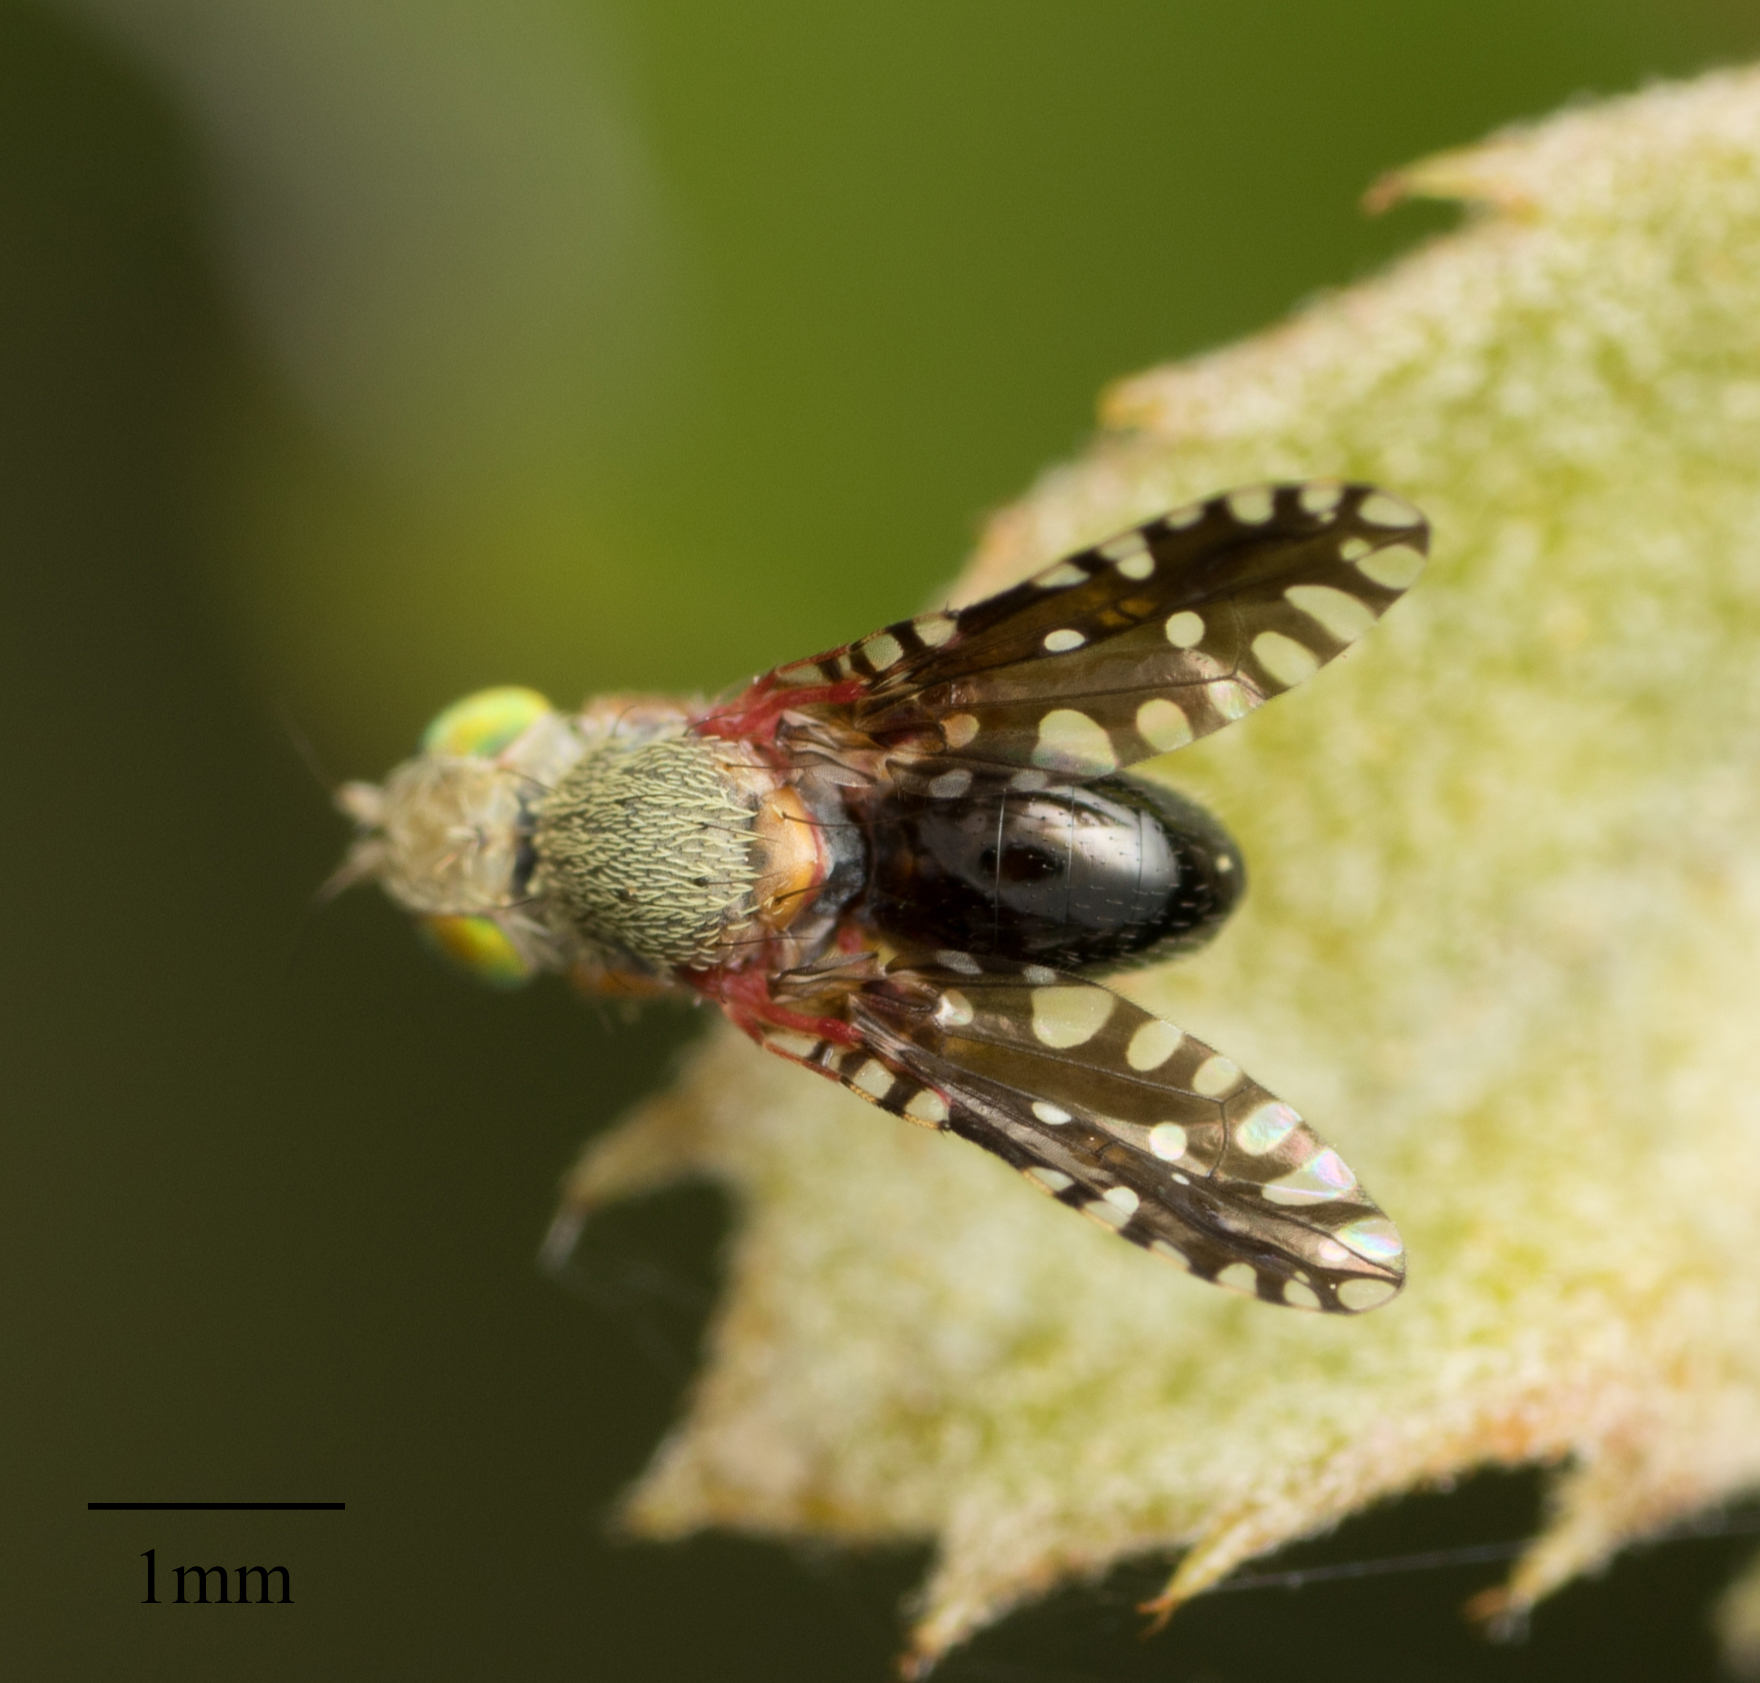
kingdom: Animalia
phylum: Arthropoda
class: Insecta
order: Diptera
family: Tephritidae
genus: Valentibulla
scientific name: Valentibulla californica
